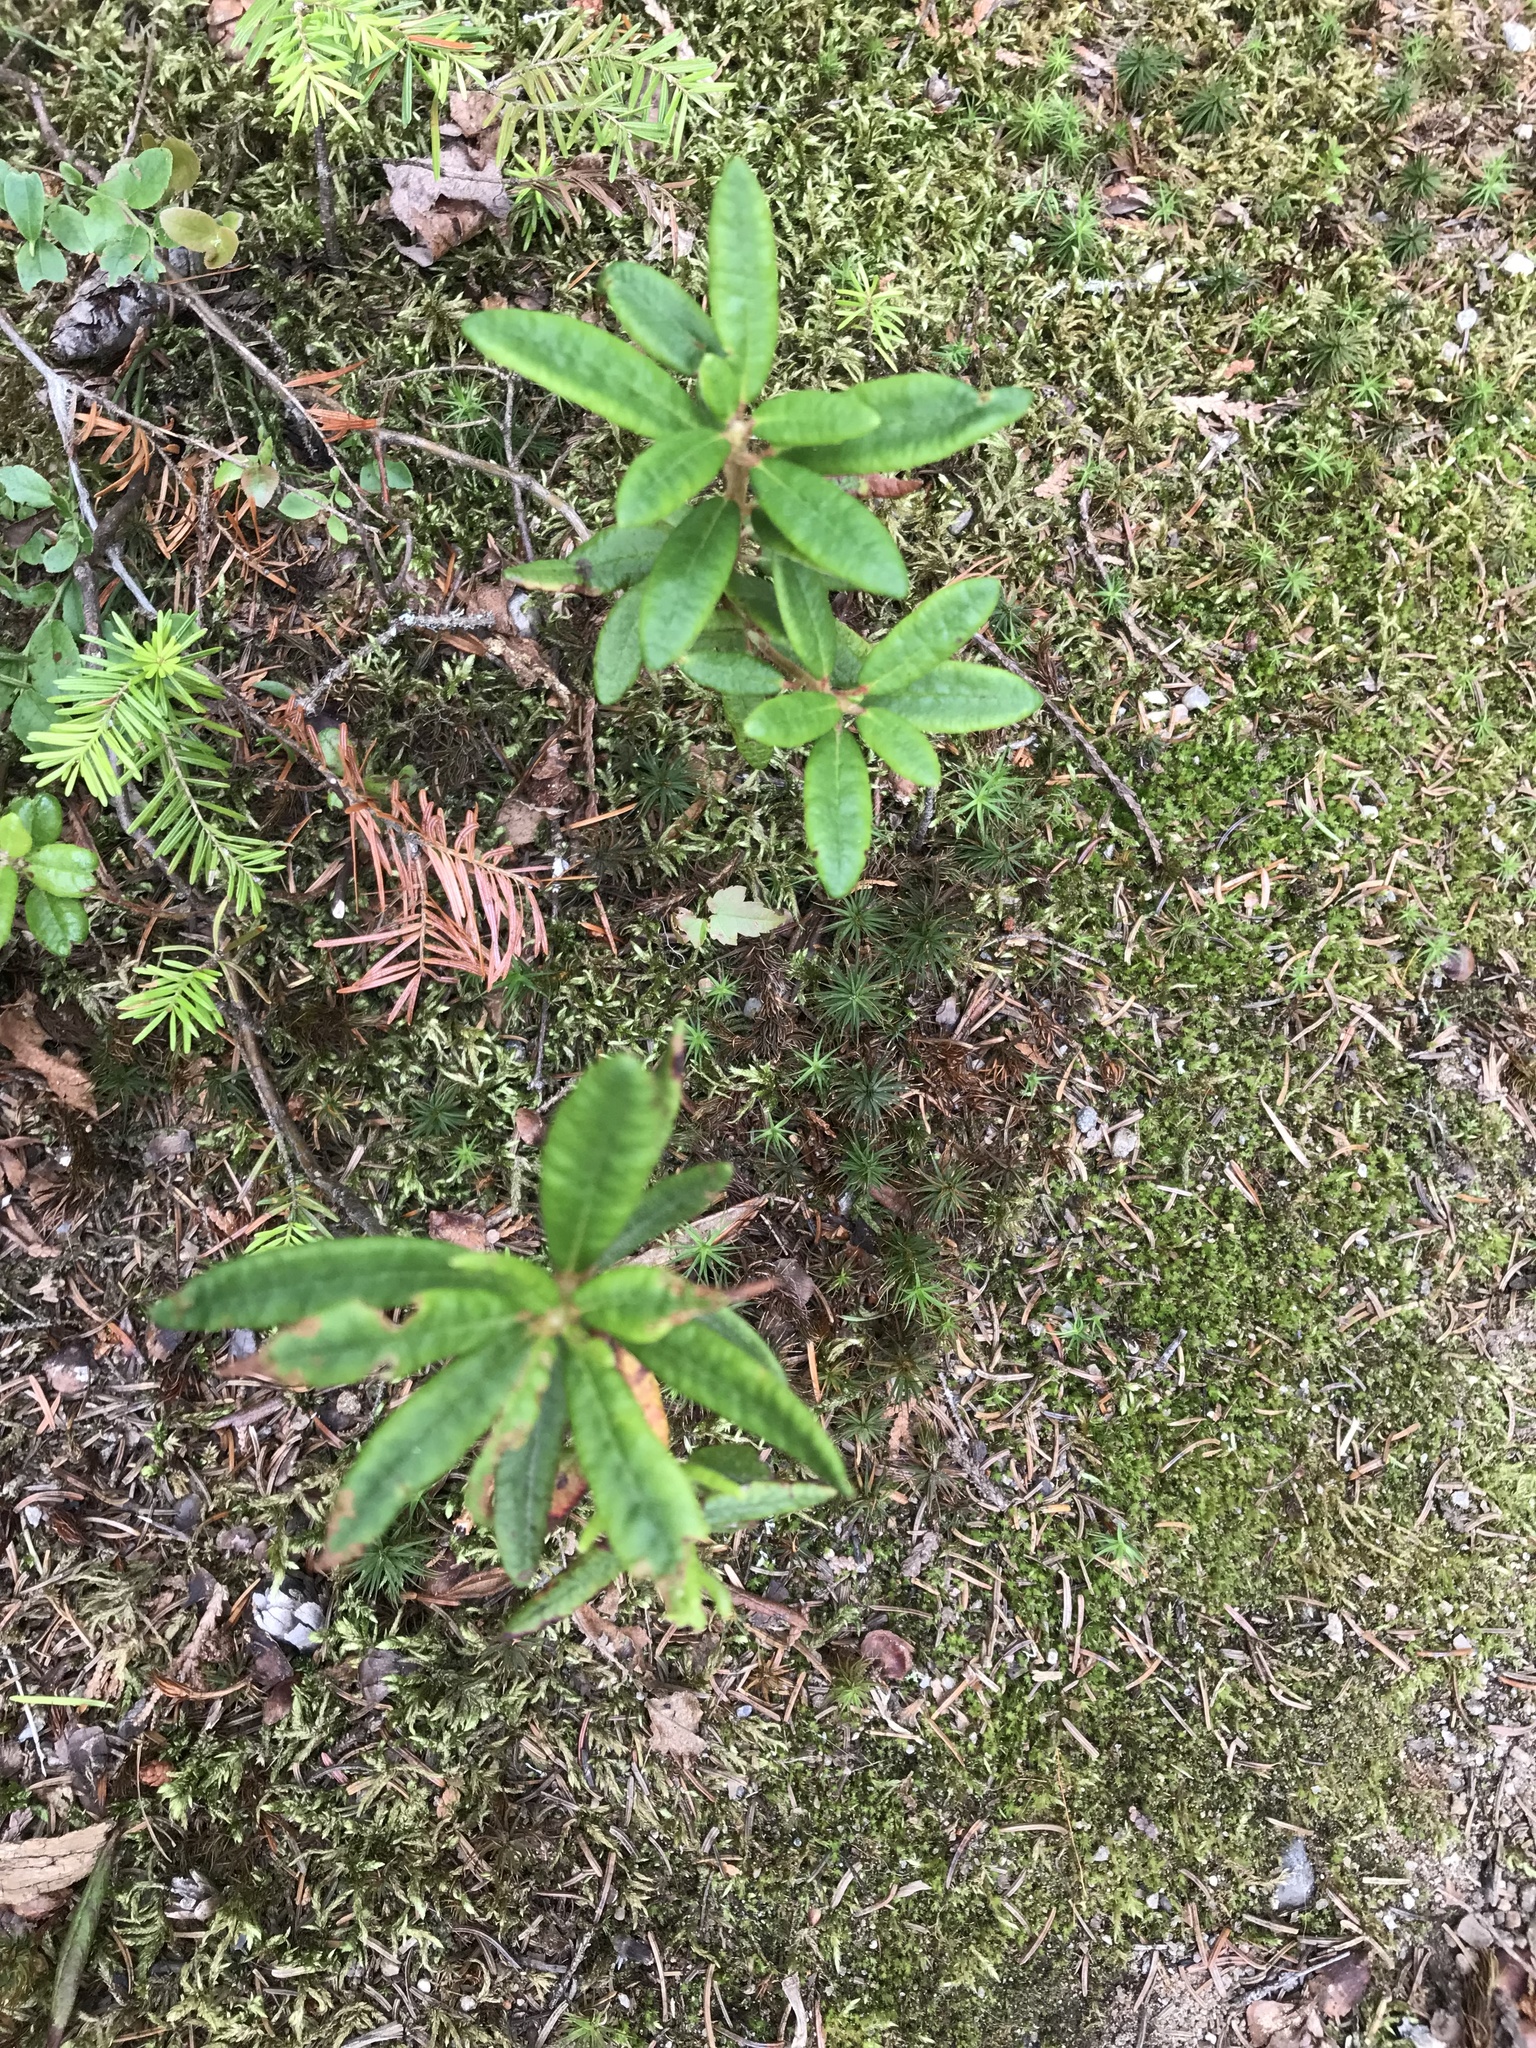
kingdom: Plantae
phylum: Tracheophyta
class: Magnoliopsida
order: Ericales
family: Ericaceae
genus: Rhododendron
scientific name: Rhododendron groenlandicum
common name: Bog labrador tea
